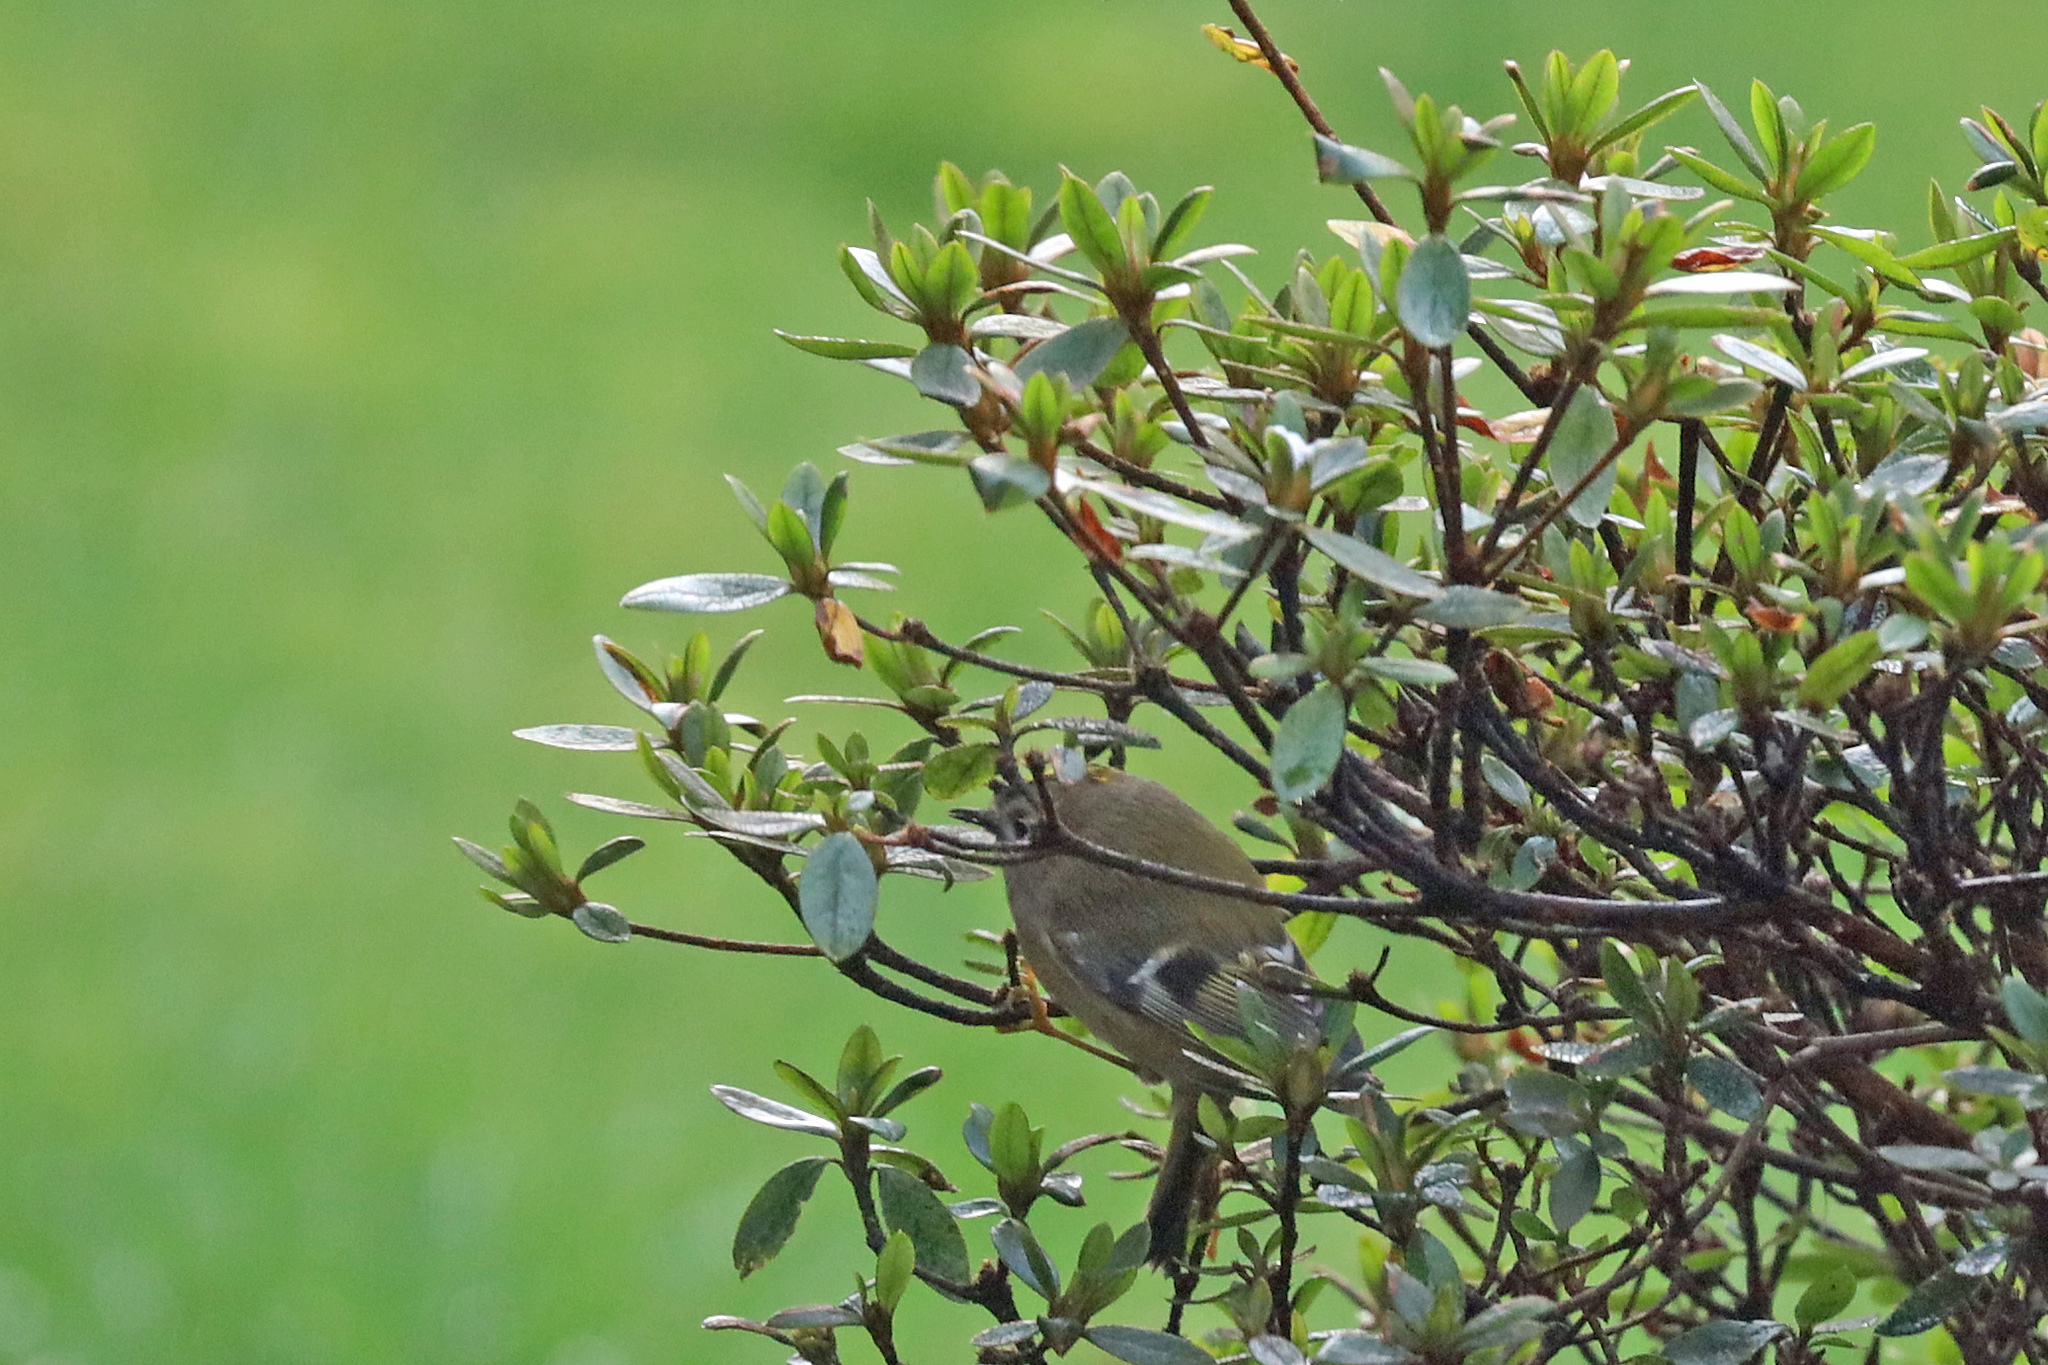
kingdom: Animalia
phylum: Chordata
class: Aves
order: Passeriformes
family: Regulidae
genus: Regulus
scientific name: Regulus regulus
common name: Goldcrest
